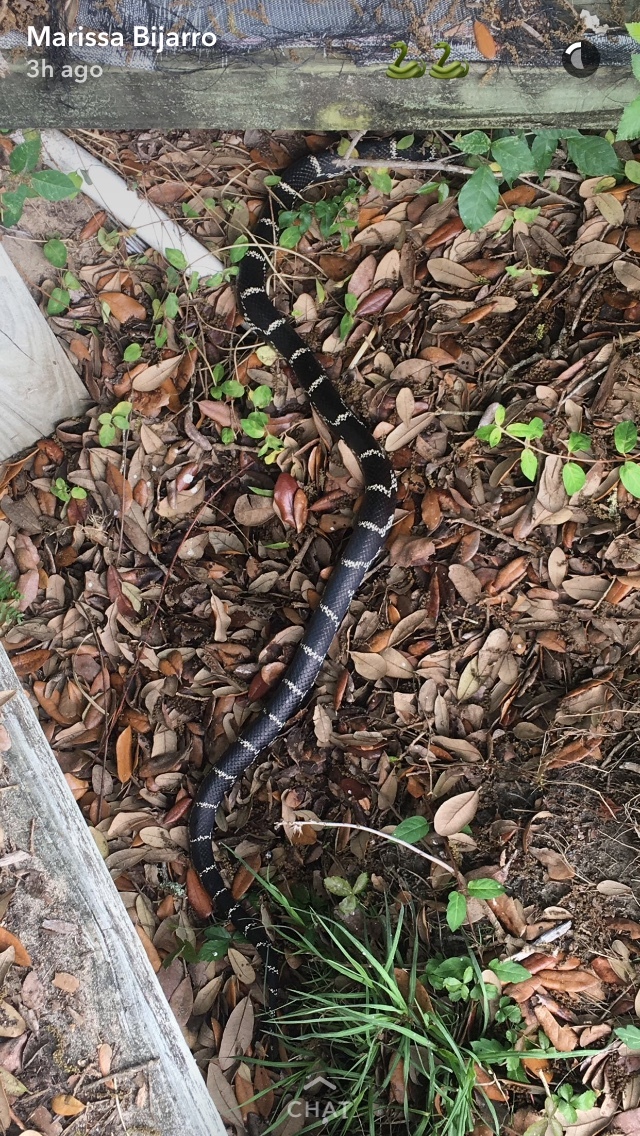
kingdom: Animalia
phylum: Chordata
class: Squamata
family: Colubridae
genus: Lampropeltis
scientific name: Lampropeltis getula
